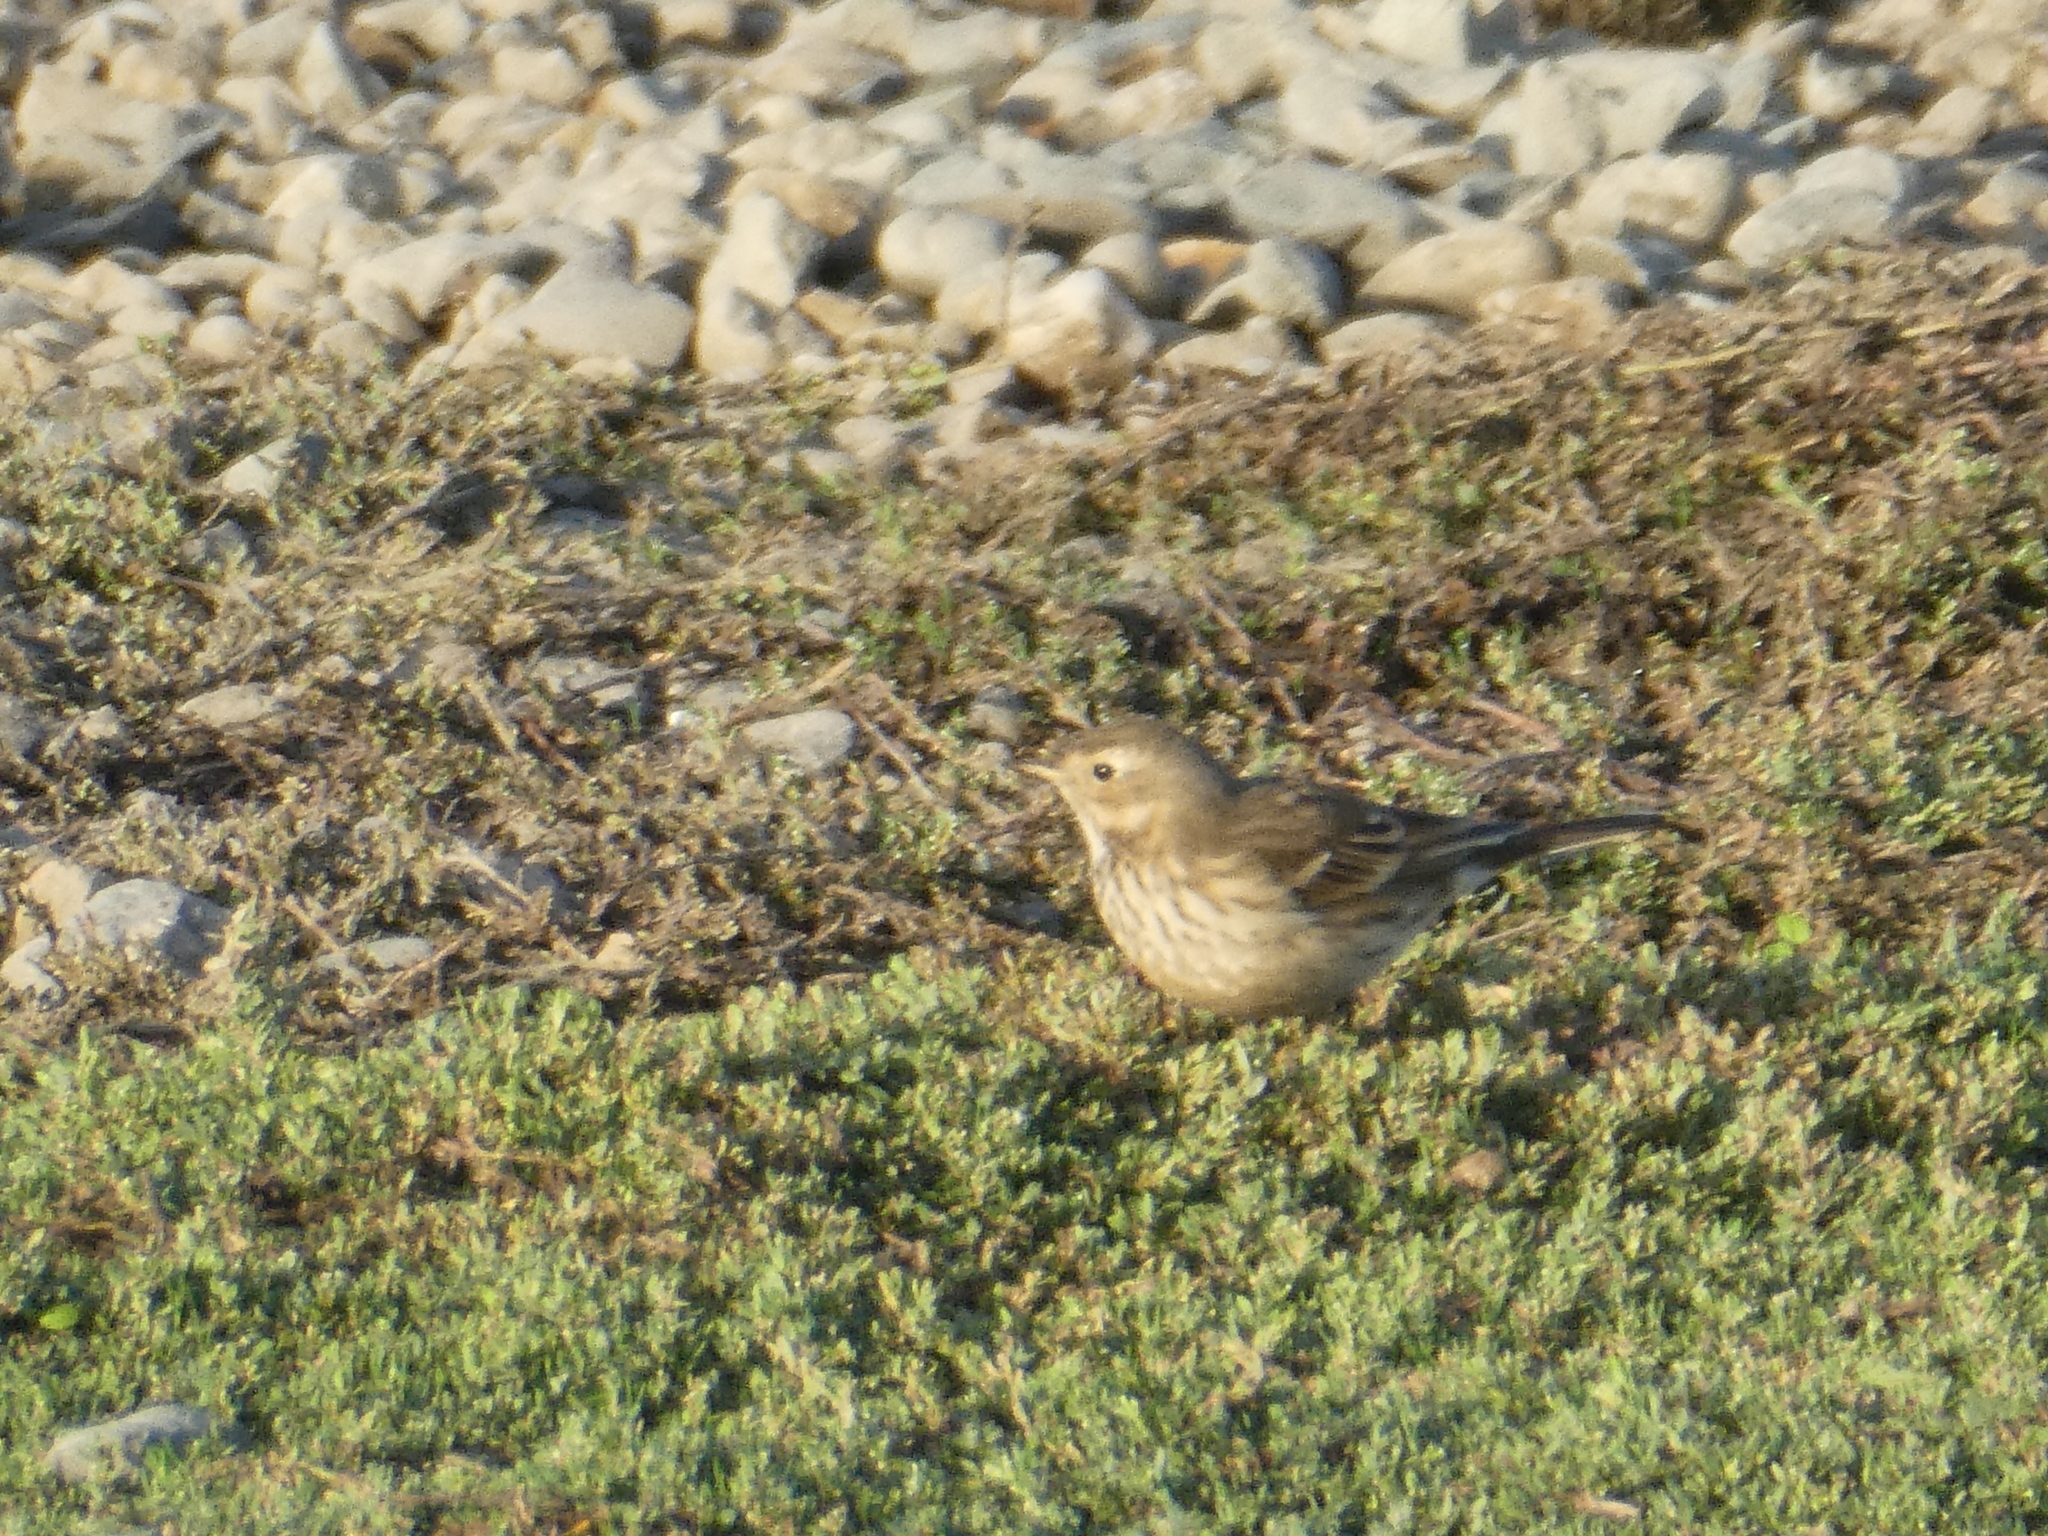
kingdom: Animalia
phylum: Chordata
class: Aves
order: Passeriformes
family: Motacillidae
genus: Anthus
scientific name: Anthus rubescens
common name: Buff-bellied pipit
